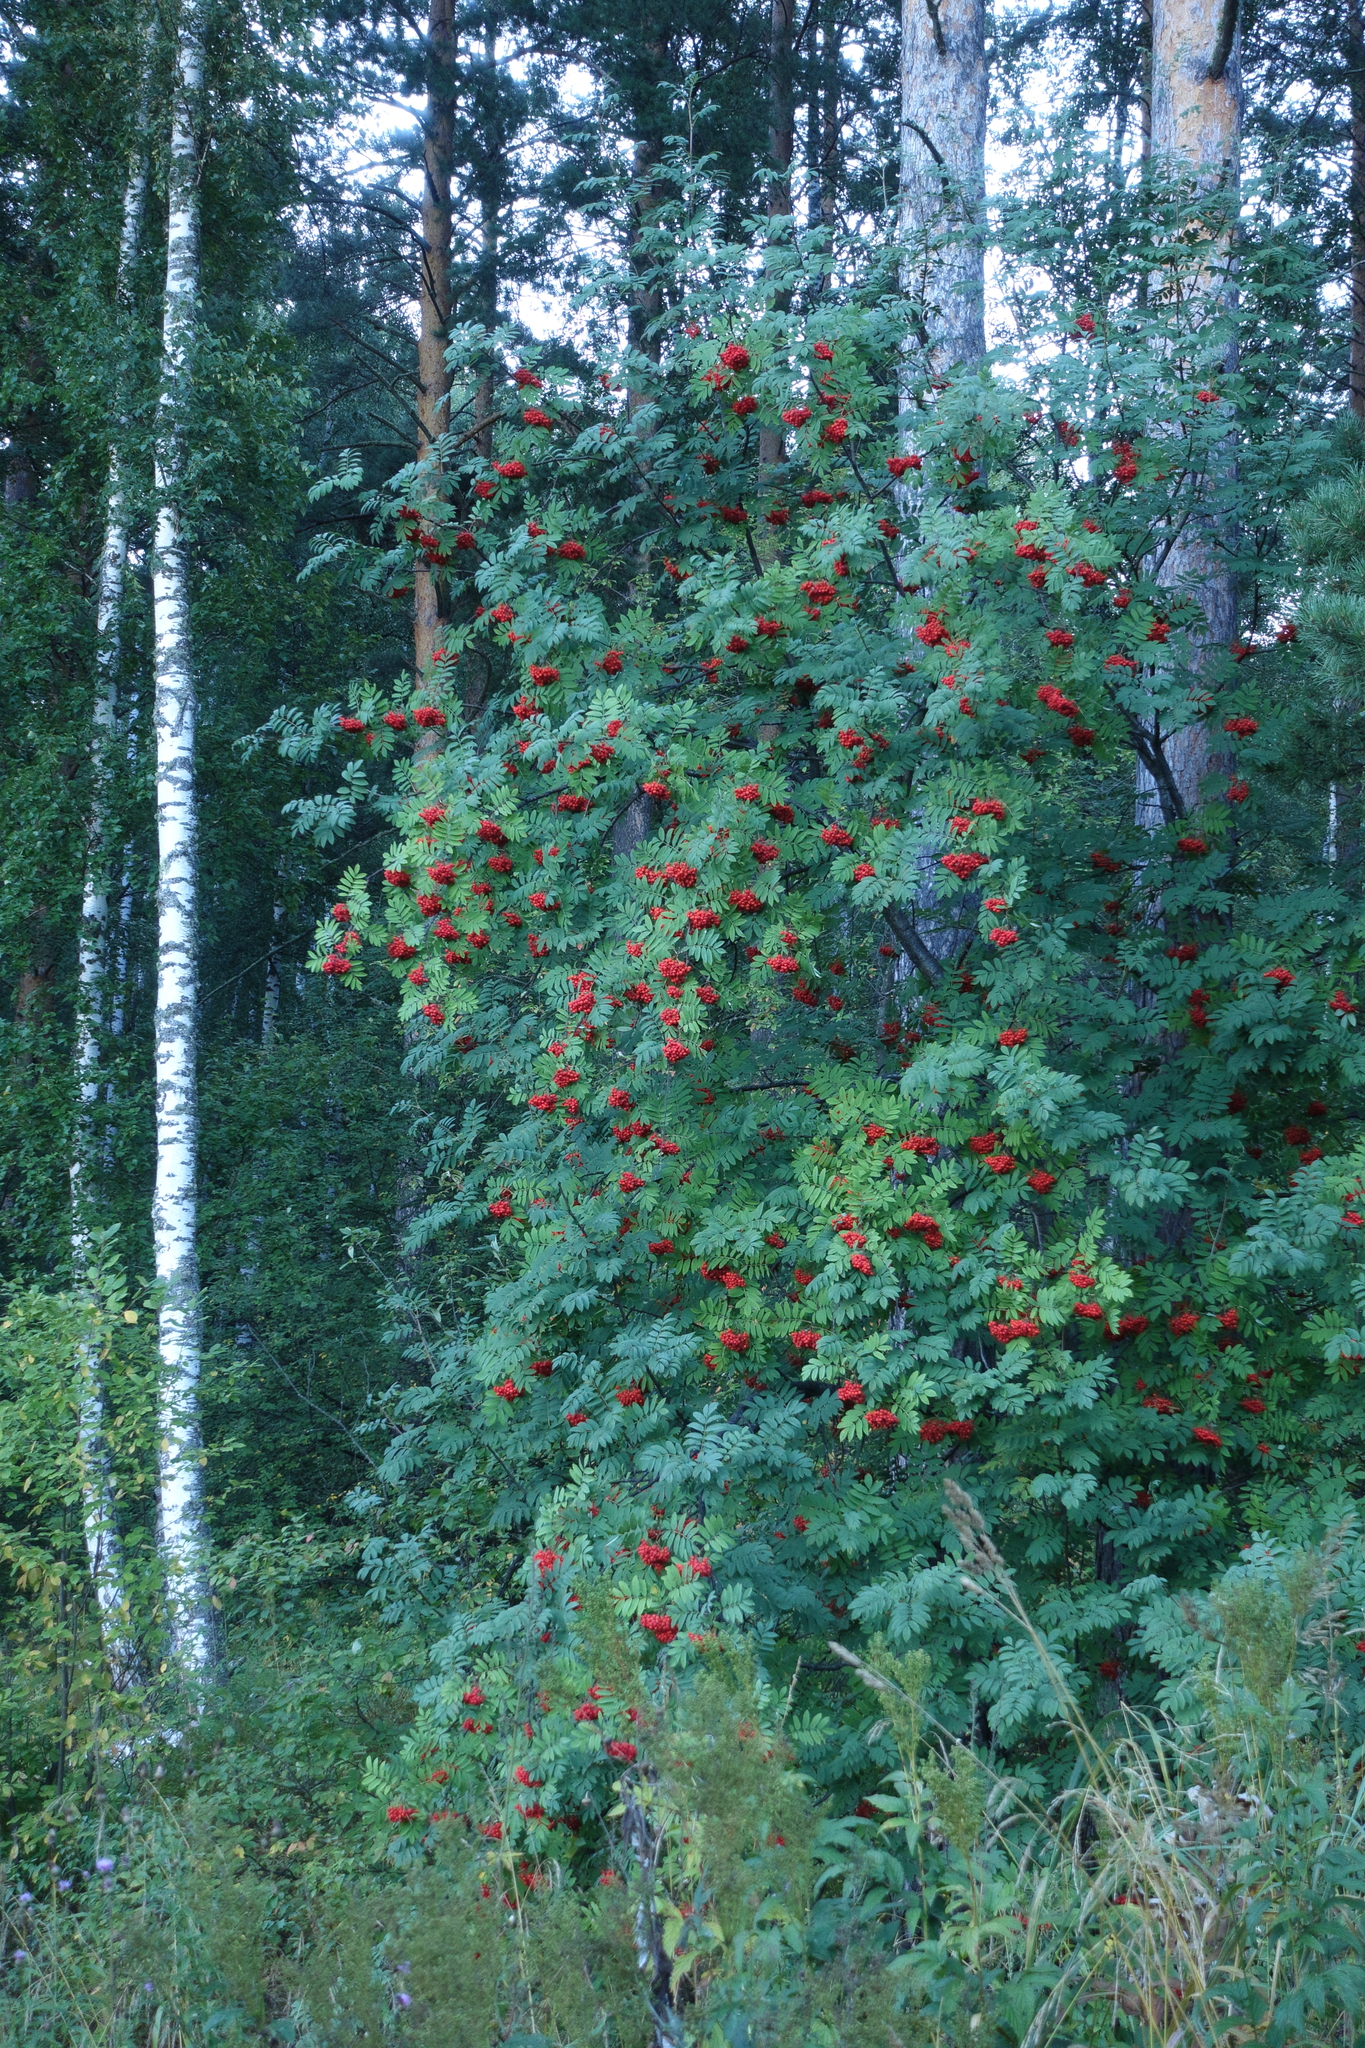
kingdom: Plantae
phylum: Tracheophyta
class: Magnoliopsida
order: Rosales
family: Rosaceae
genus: Sorbus
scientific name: Sorbus aucuparia
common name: Rowan
